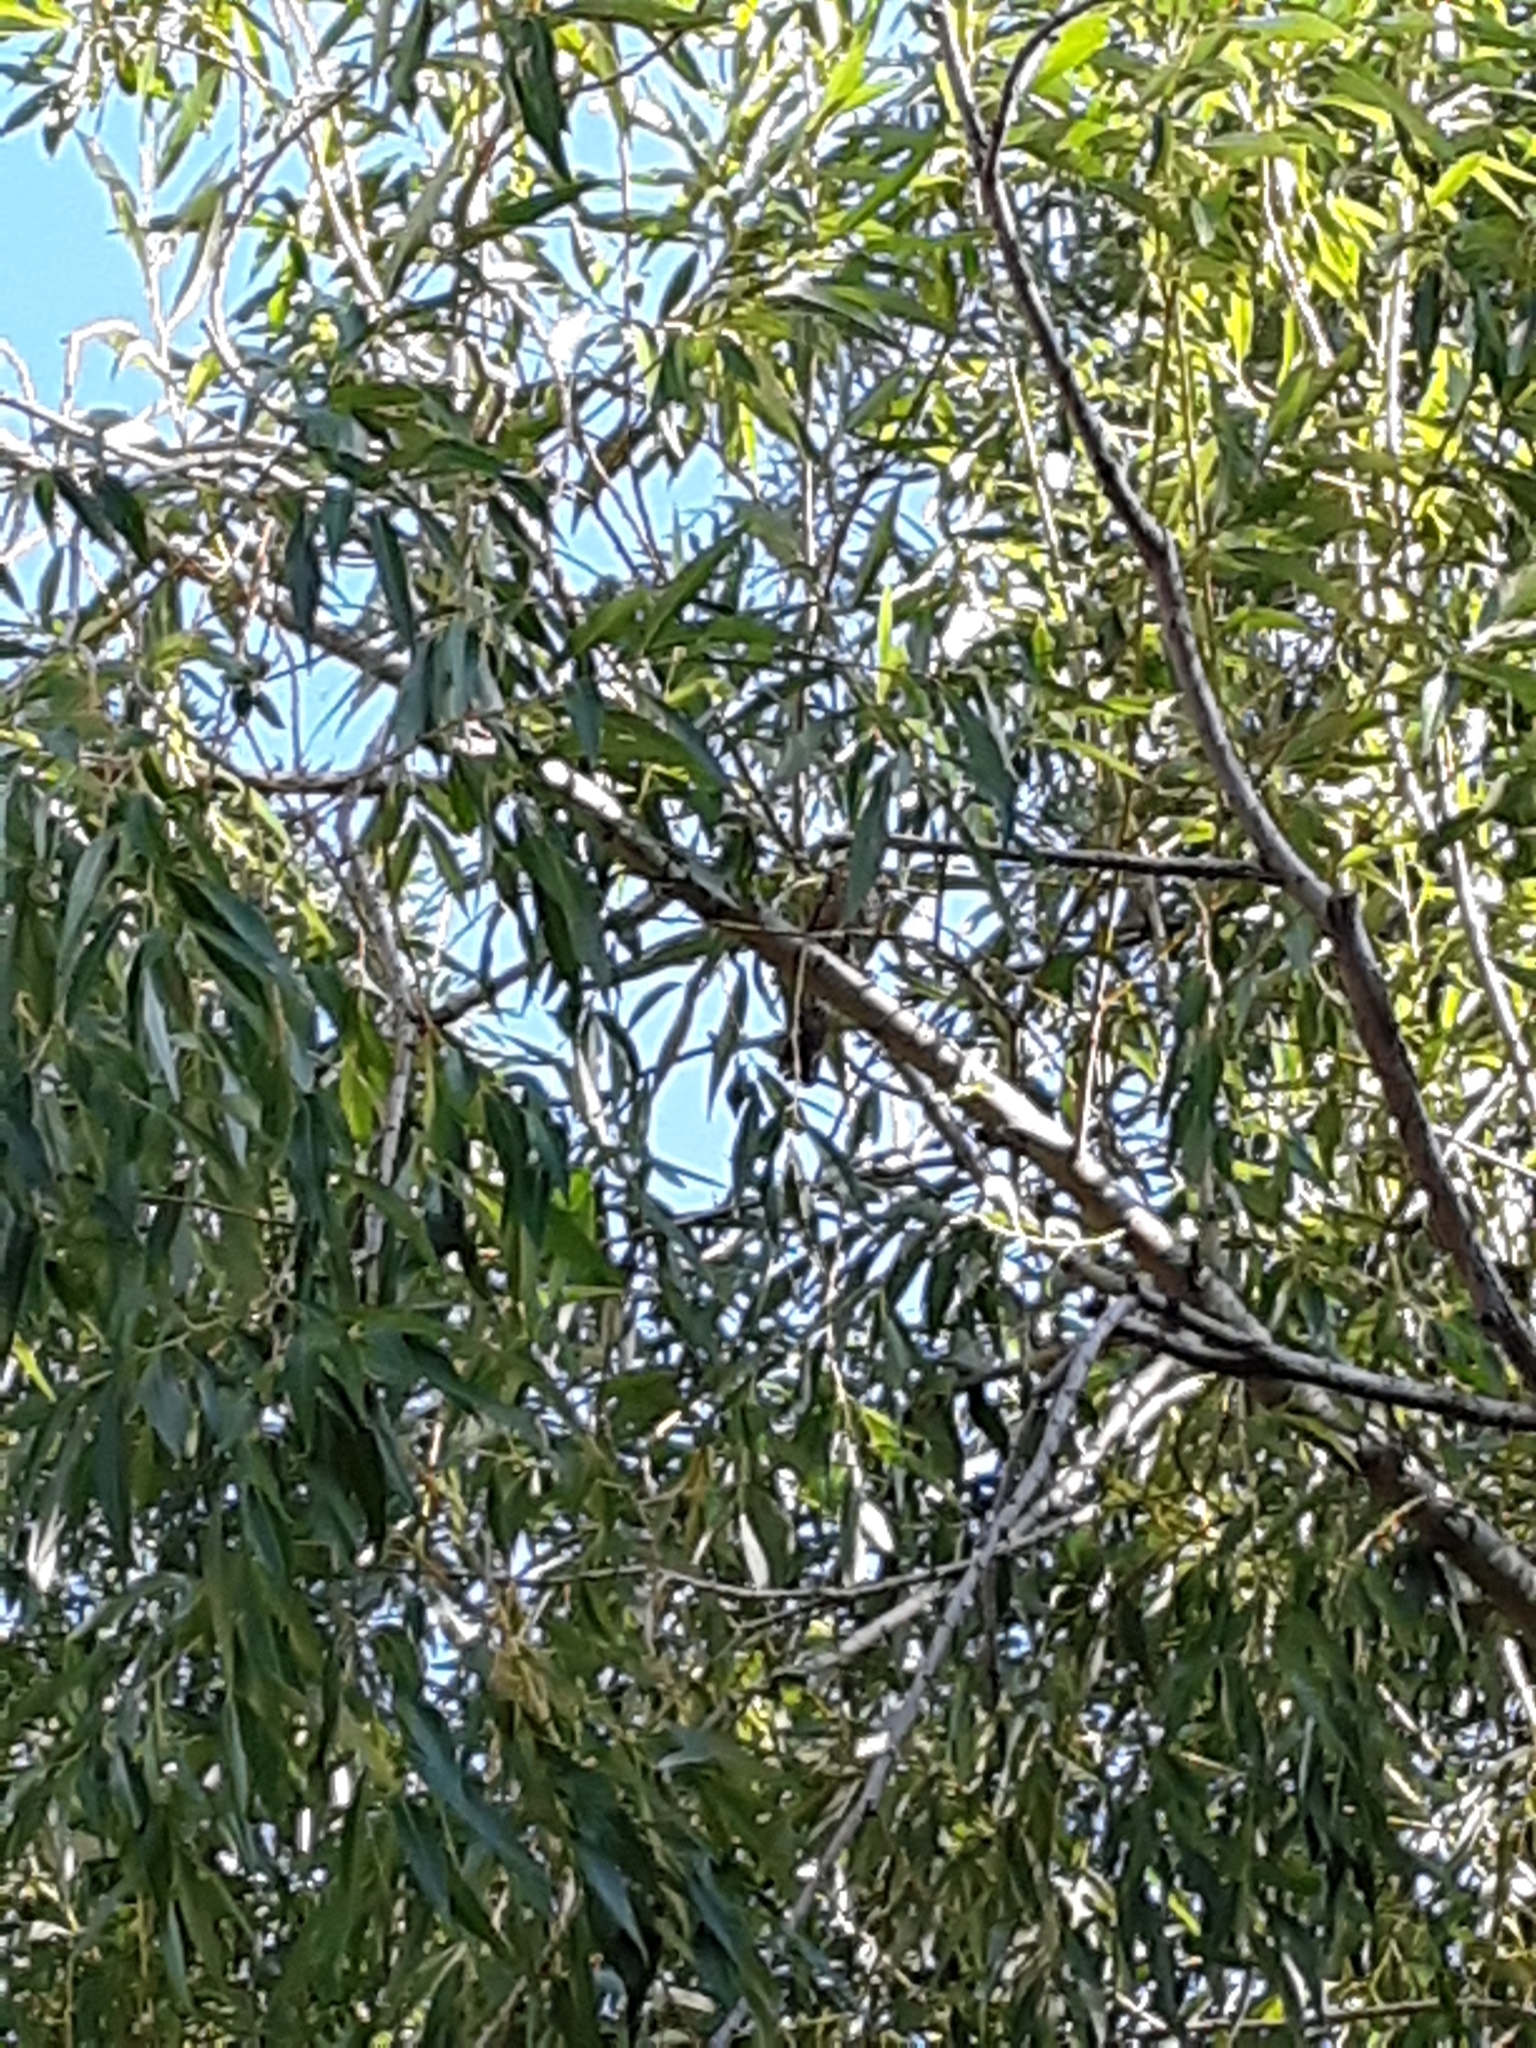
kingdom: Animalia
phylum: Chordata
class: Aves
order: Passeriformes
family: Turdidae
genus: Turdus
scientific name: Turdus migratorius
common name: American robin
